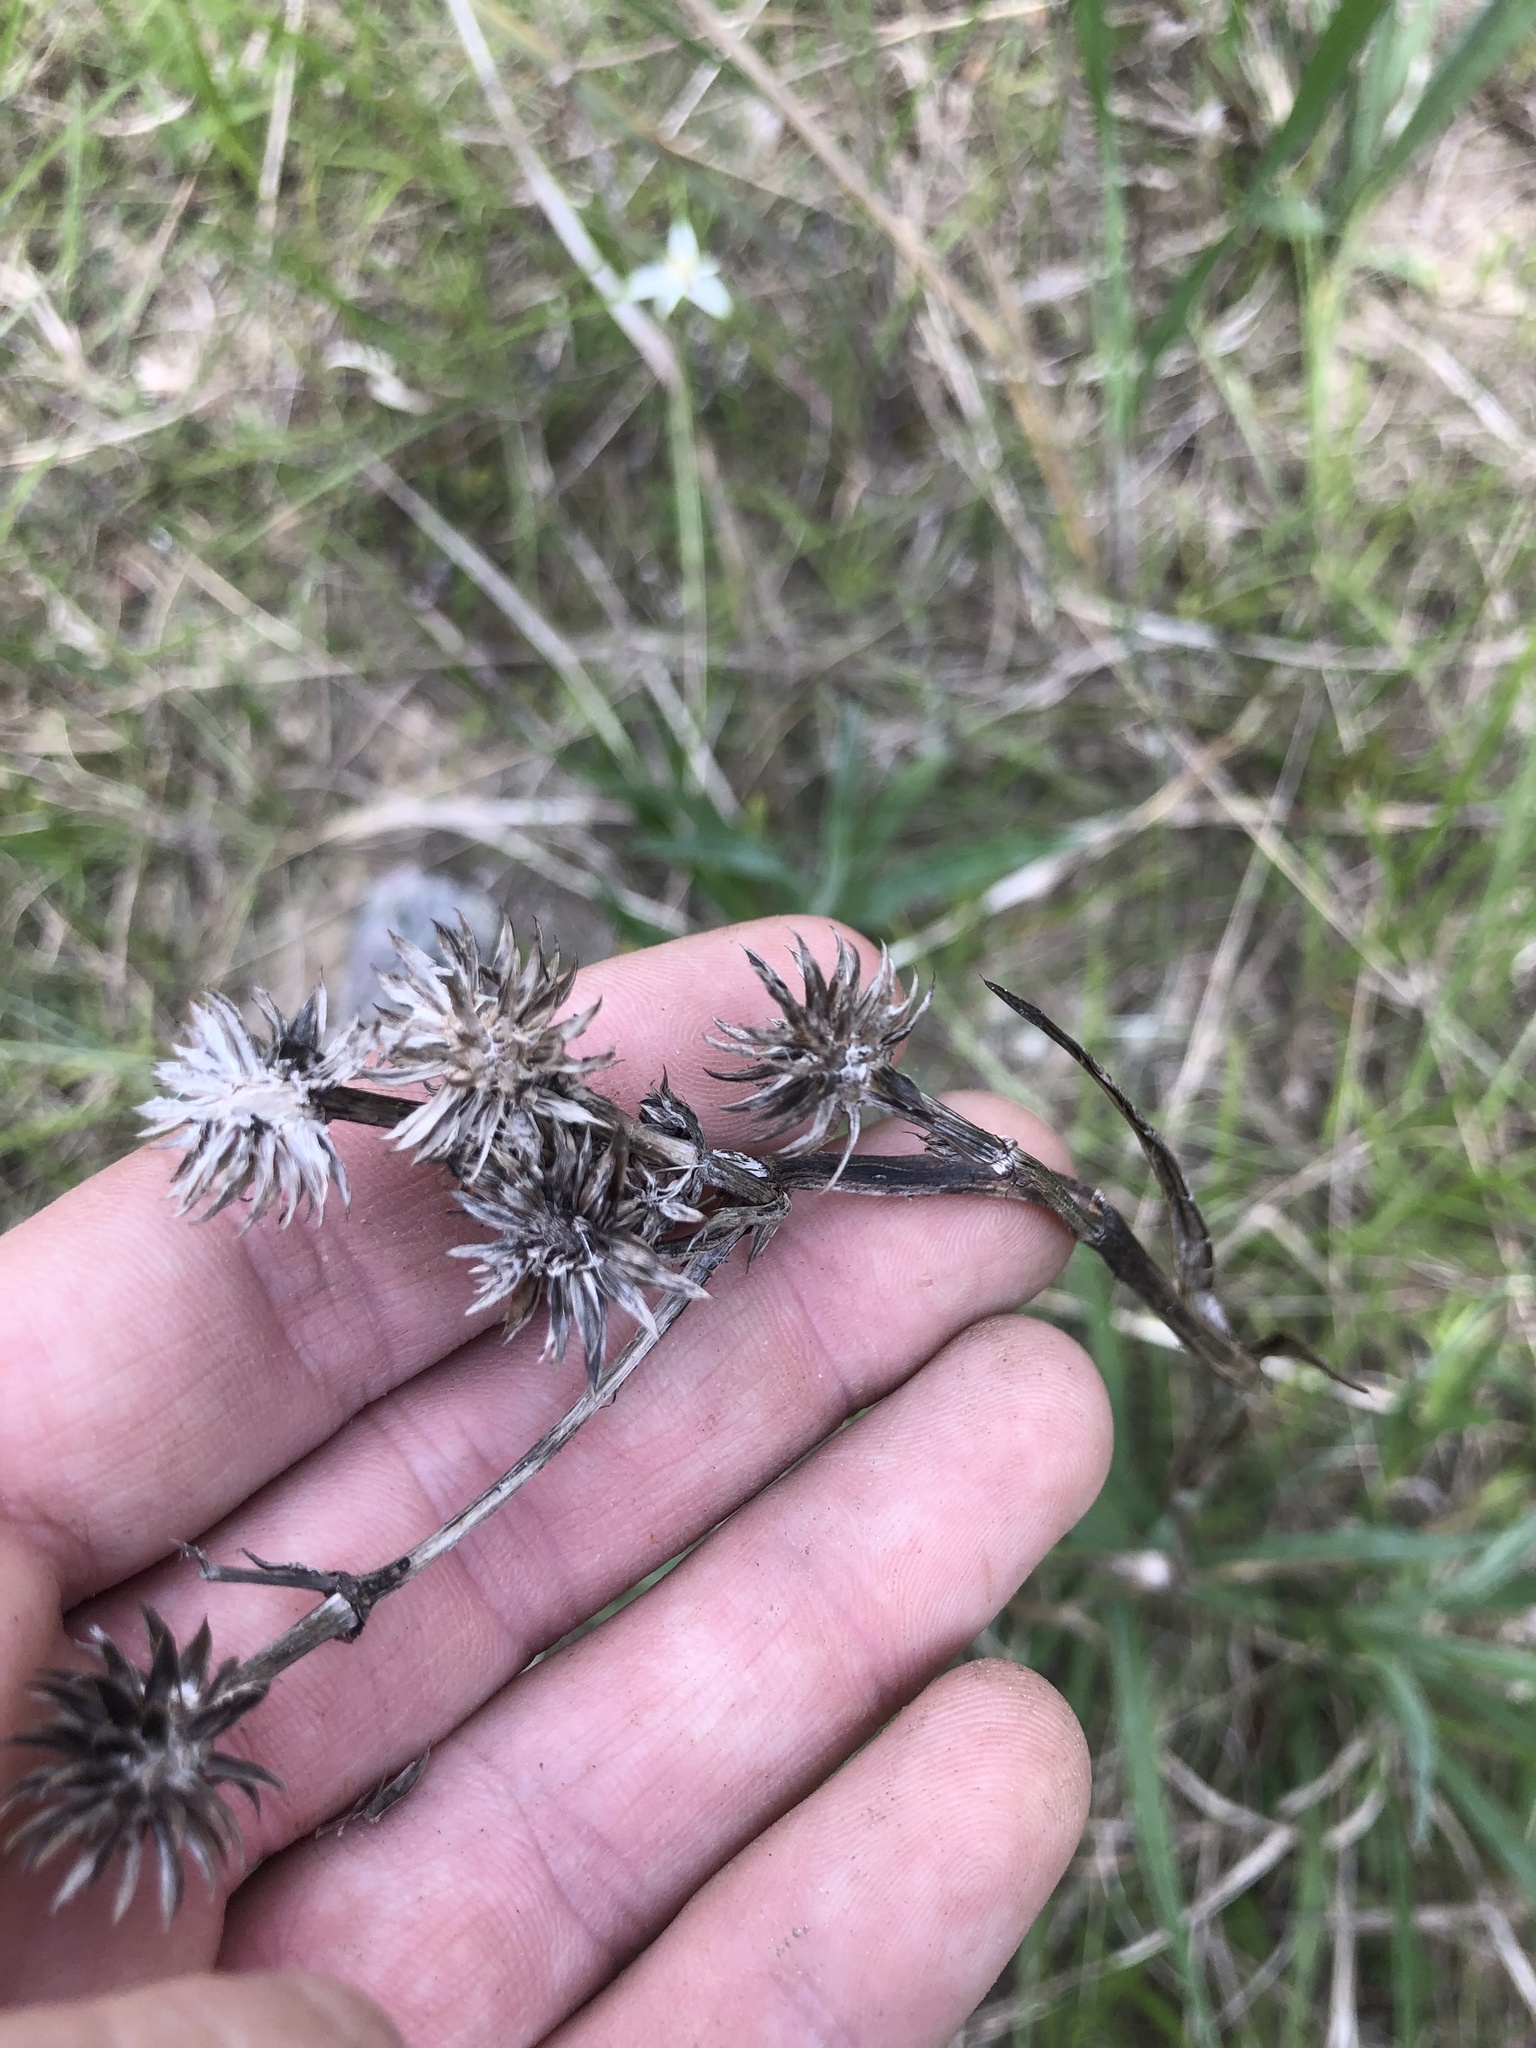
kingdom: Plantae
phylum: Tracheophyta
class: Magnoliopsida
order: Apiales
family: Apiaceae
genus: Eryngium
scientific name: Eryngium yuccifolium
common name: Button eryngo
